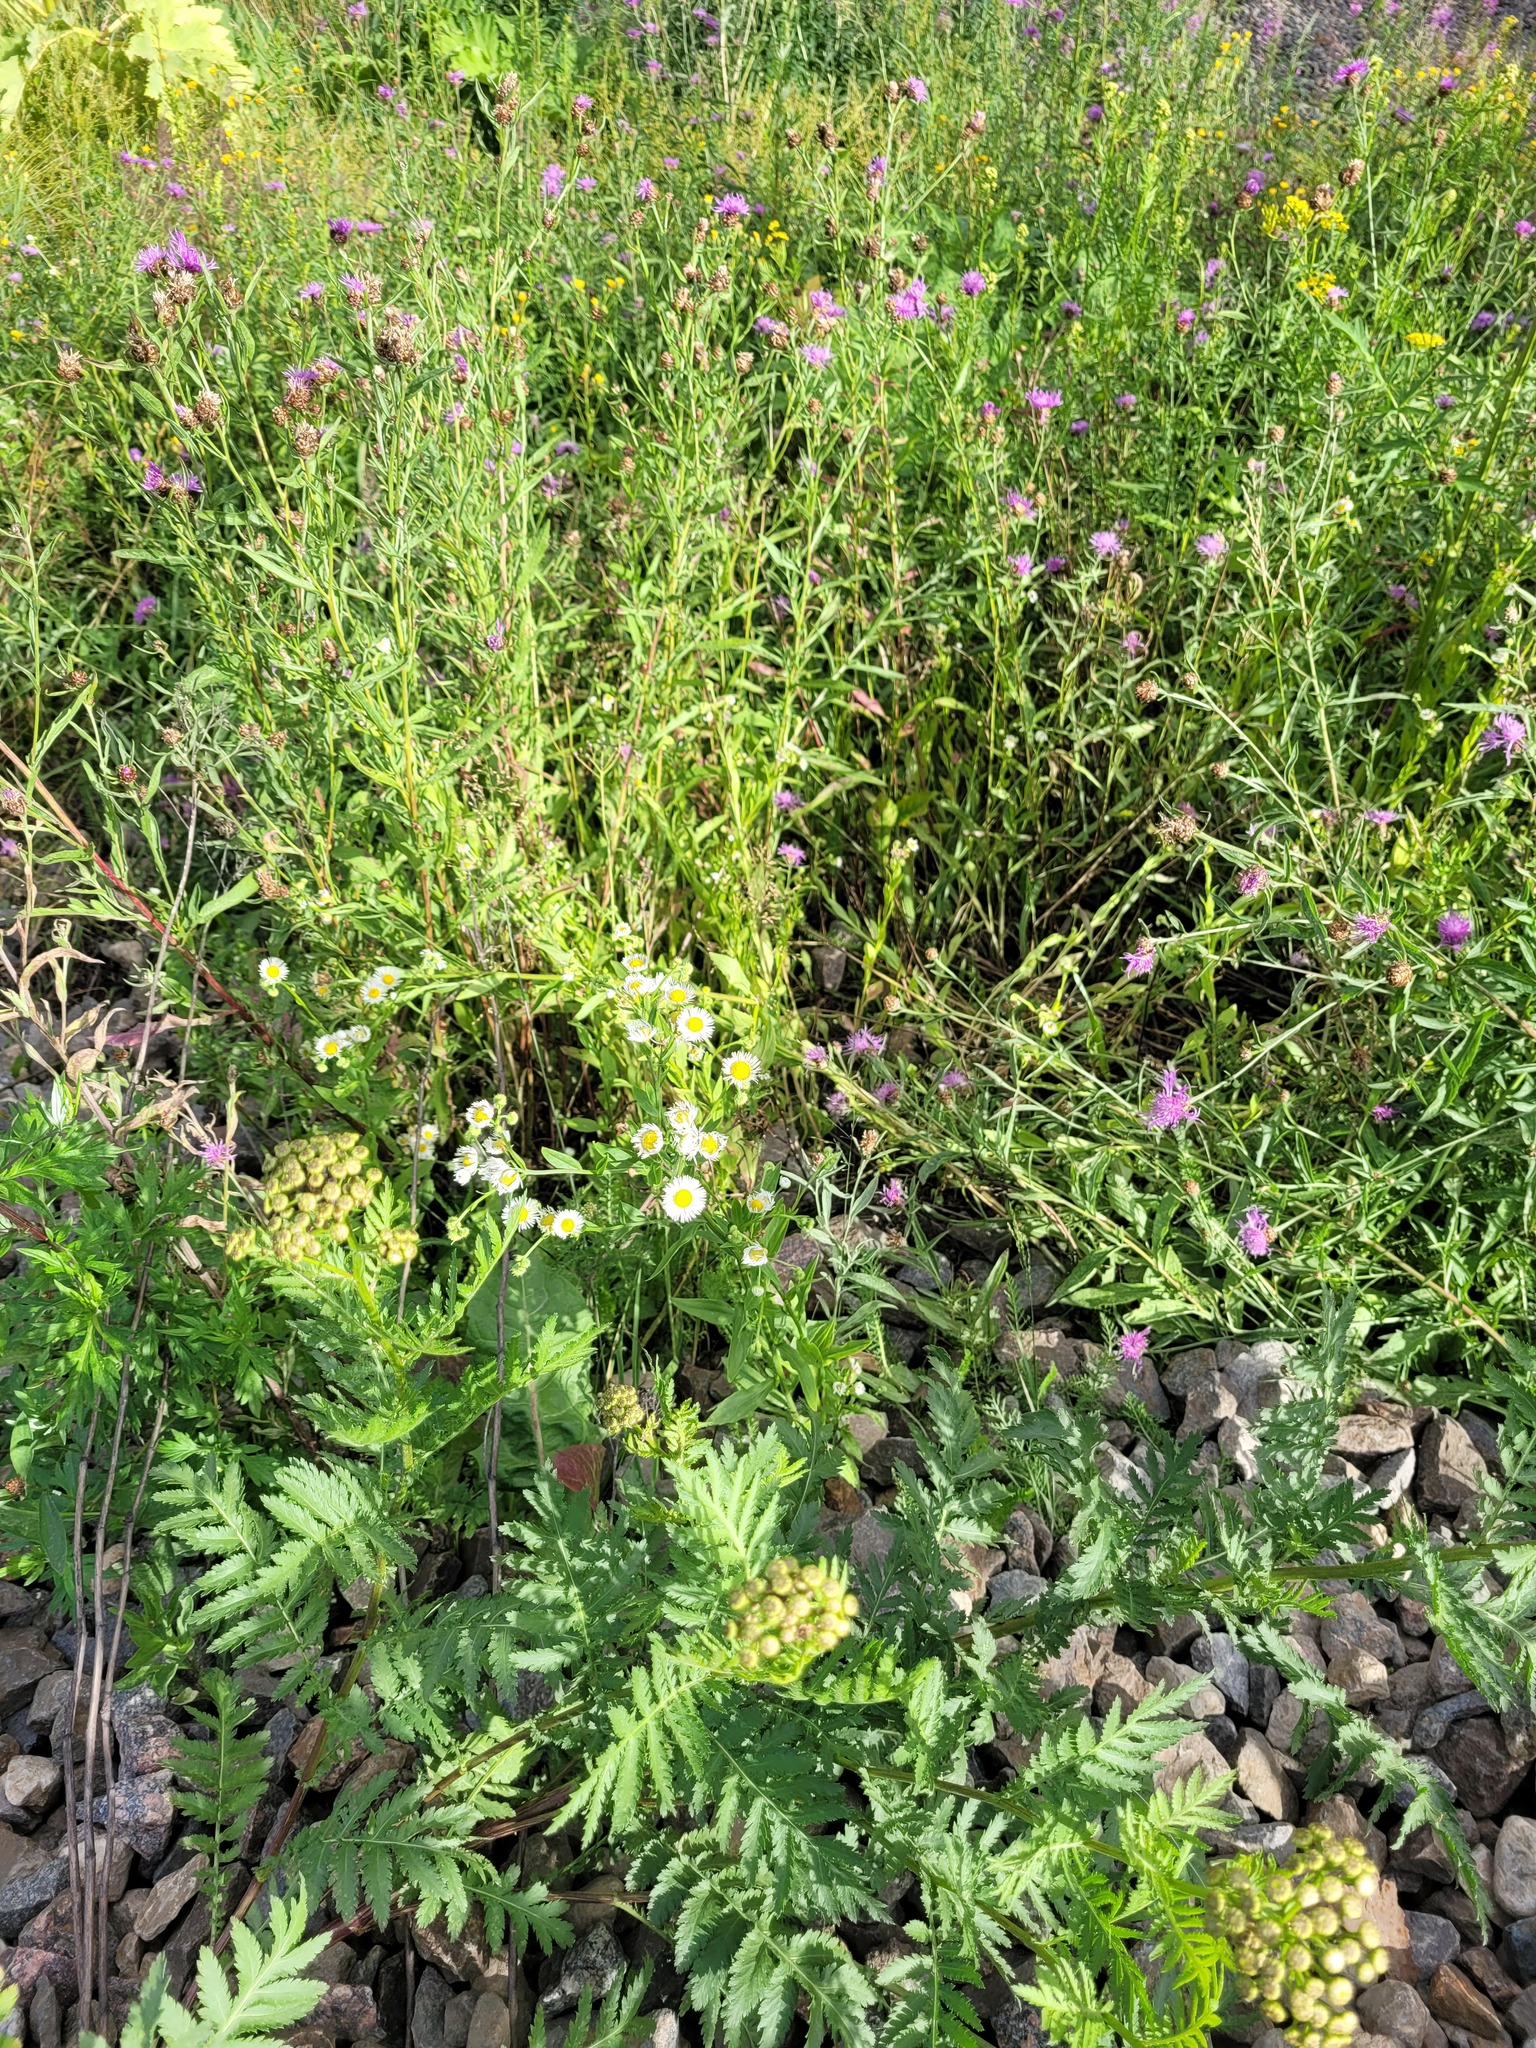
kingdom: Plantae
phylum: Tracheophyta
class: Magnoliopsida
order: Asterales
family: Asteraceae
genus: Erigeron
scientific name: Erigeron annuus
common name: Tall fleabane
